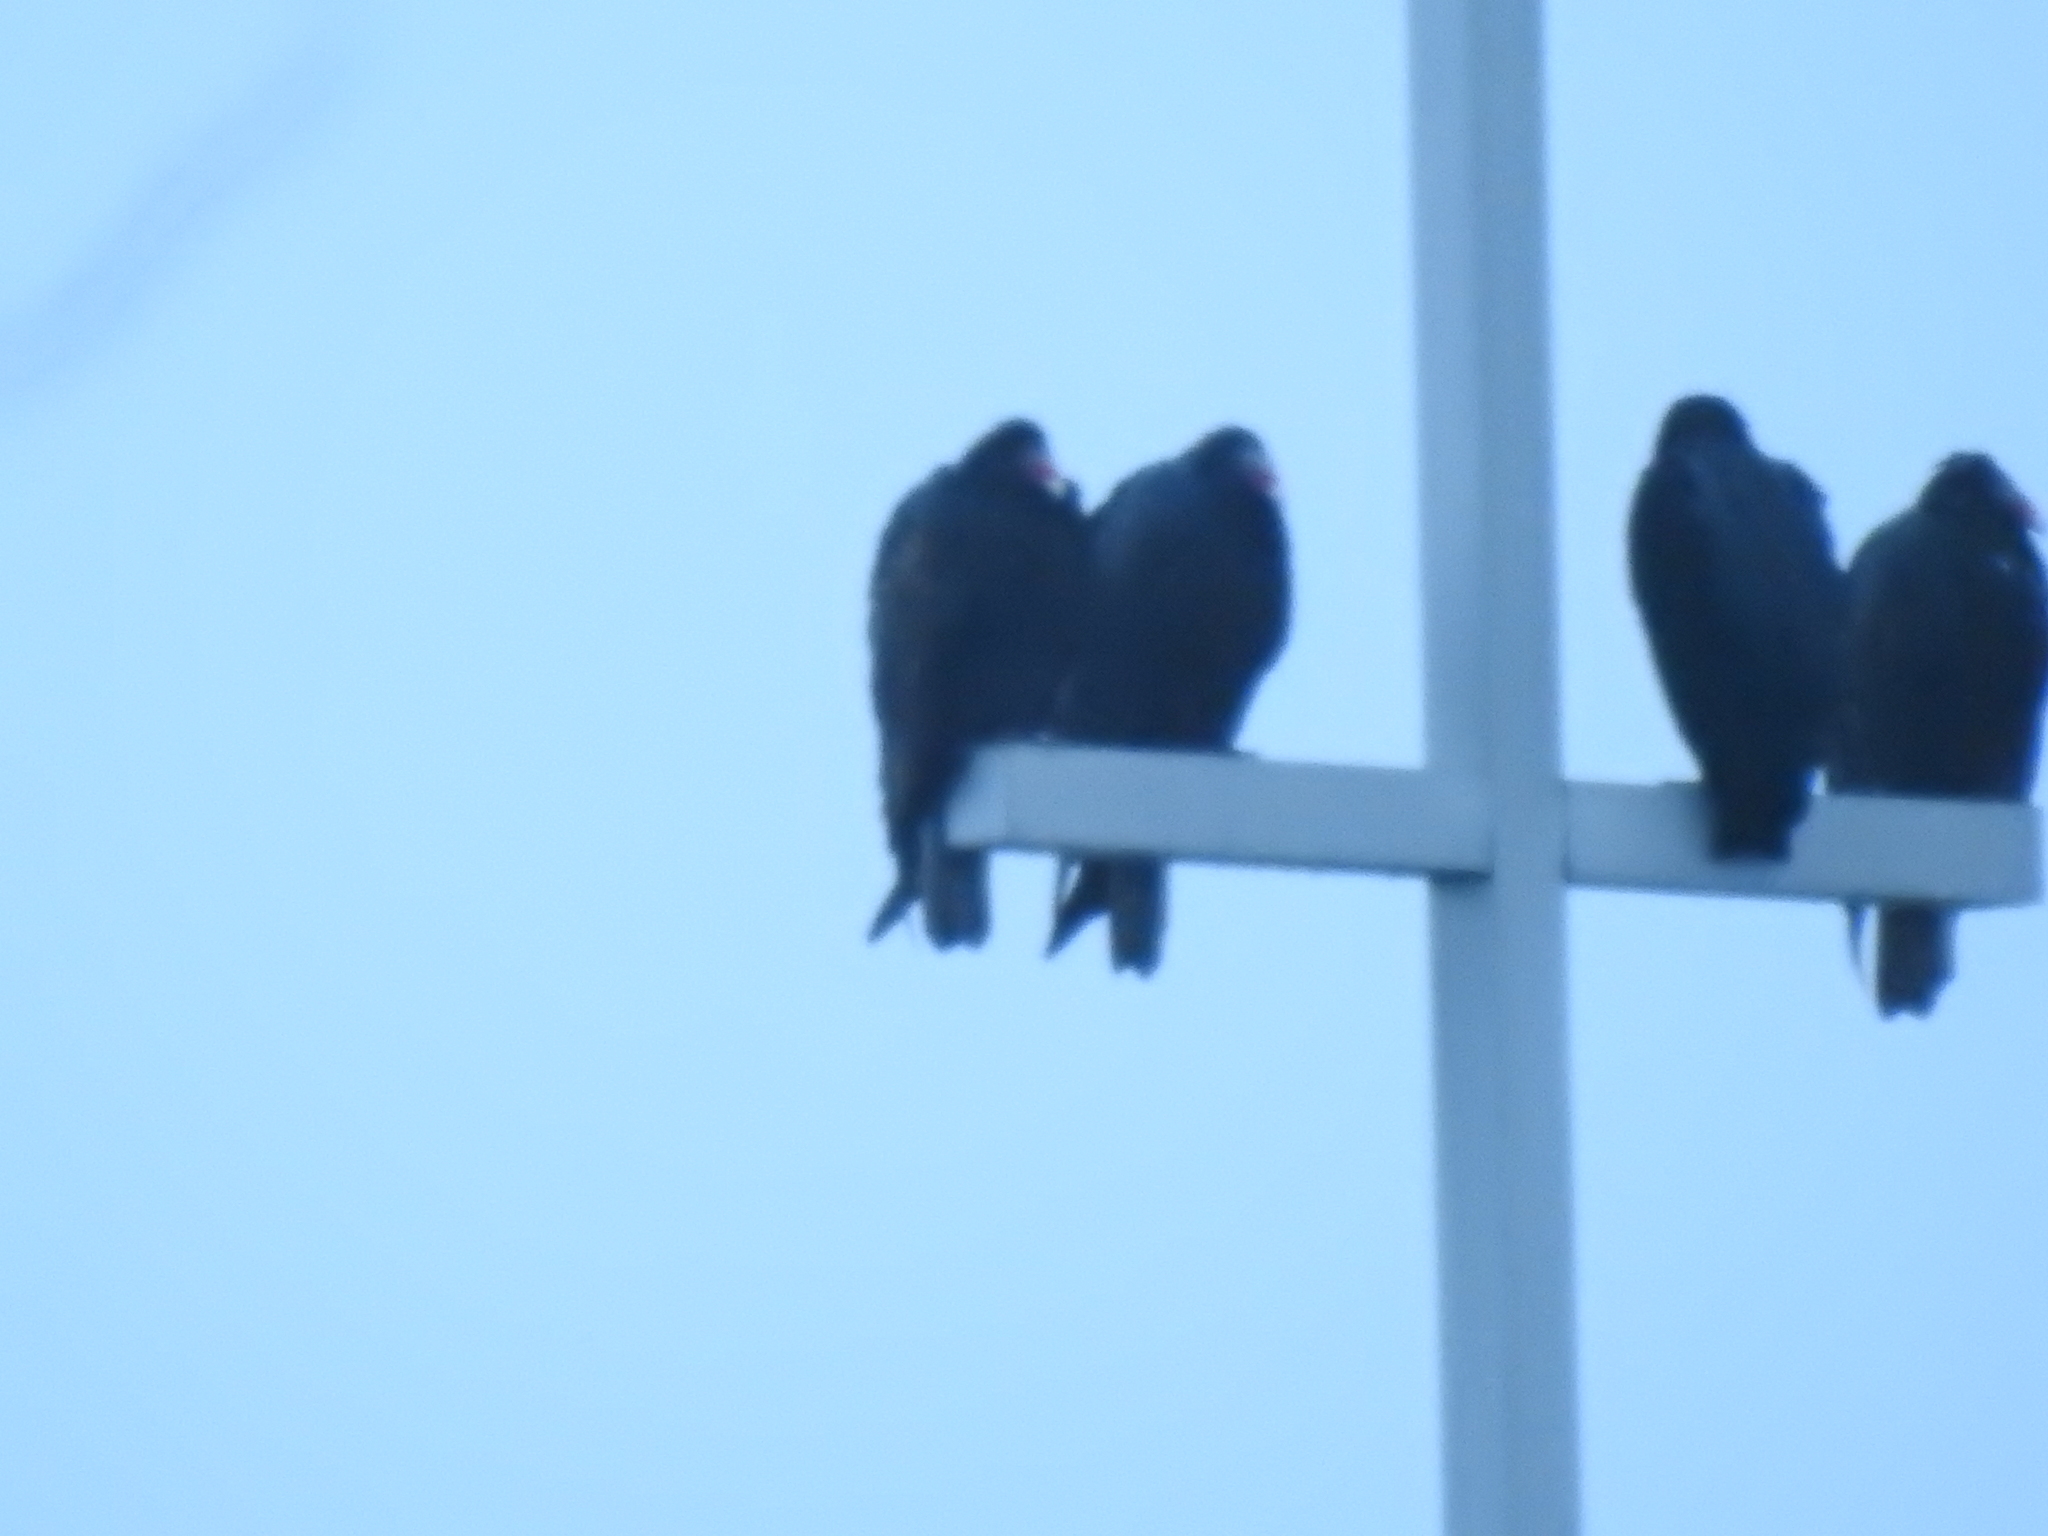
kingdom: Animalia
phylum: Chordata
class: Aves
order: Accipitriformes
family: Cathartidae
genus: Cathartes
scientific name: Cathartes aura
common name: Turkey vulture
